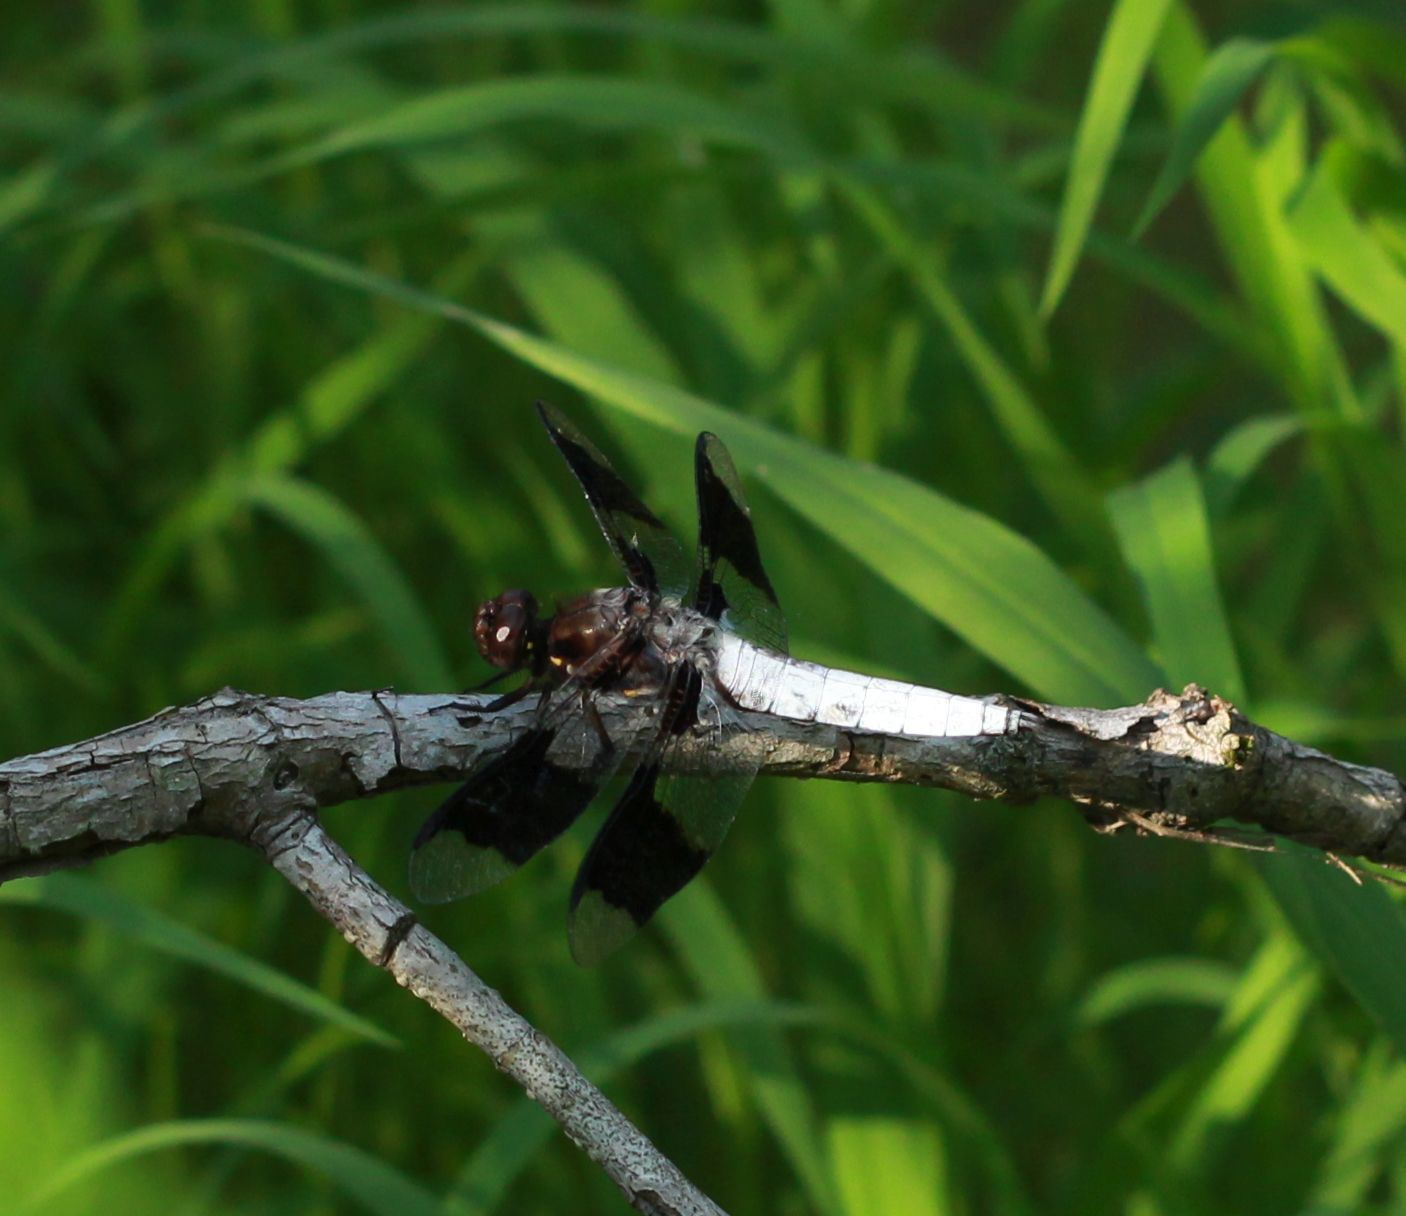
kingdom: Animalia
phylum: Arthropoda
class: Insecta
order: Odonata
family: Libellulidae
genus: Plathemis
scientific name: Plathemis lydia
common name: Common whitetail
